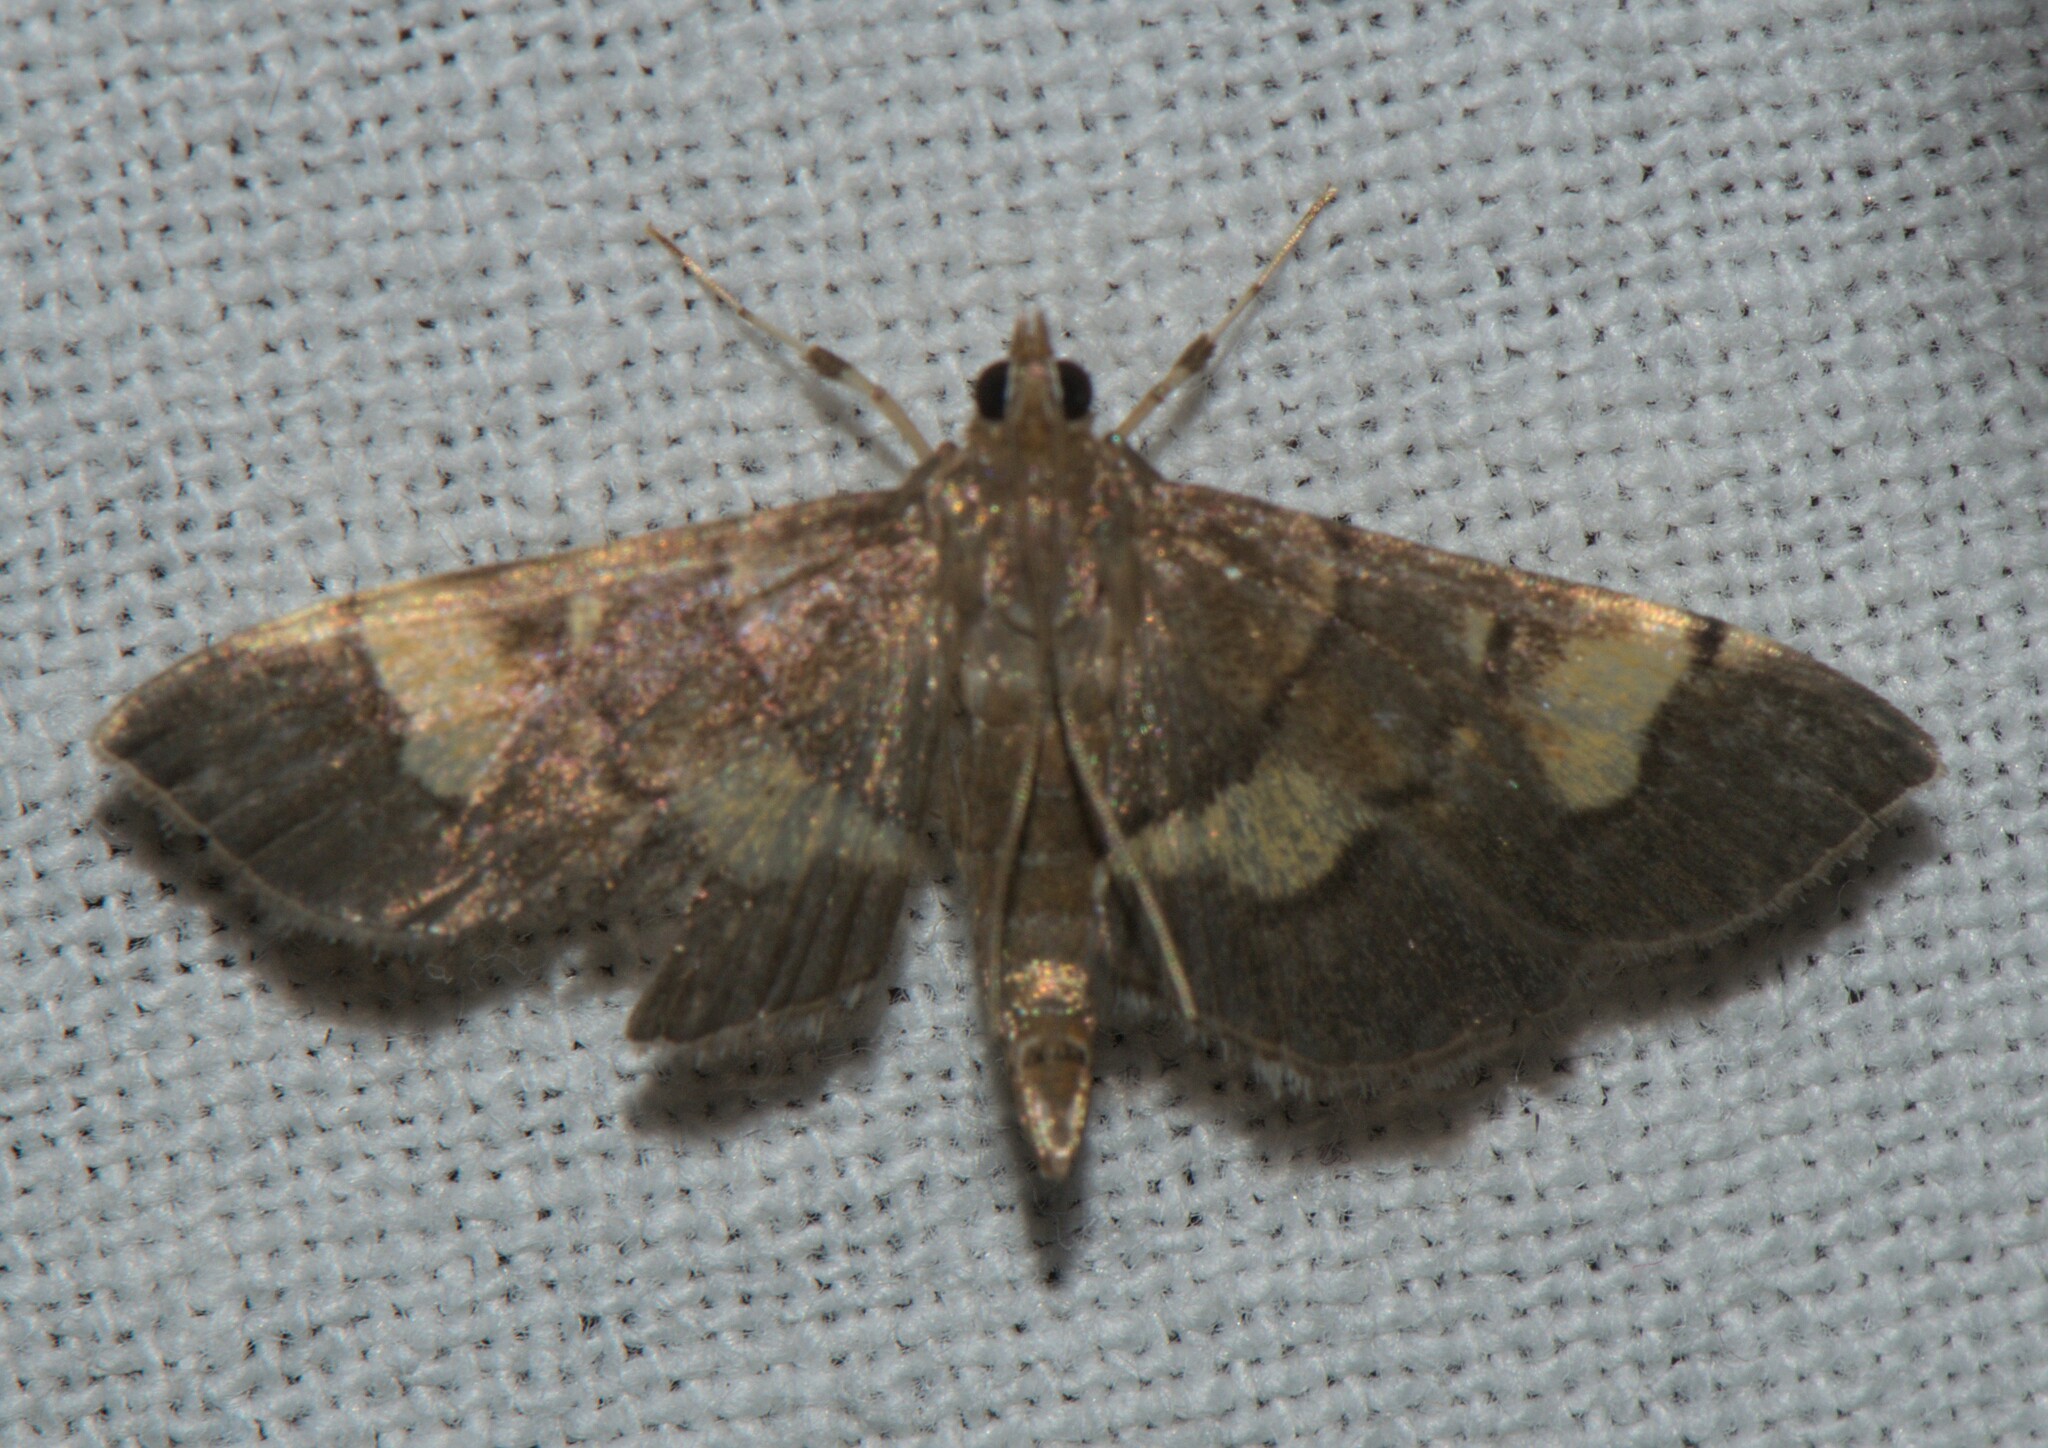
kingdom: Animalia
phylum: Arthropoda
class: Insecta
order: Lepidoptera
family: Crambidae
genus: Syngamia
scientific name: Syngamia falsidicalis
